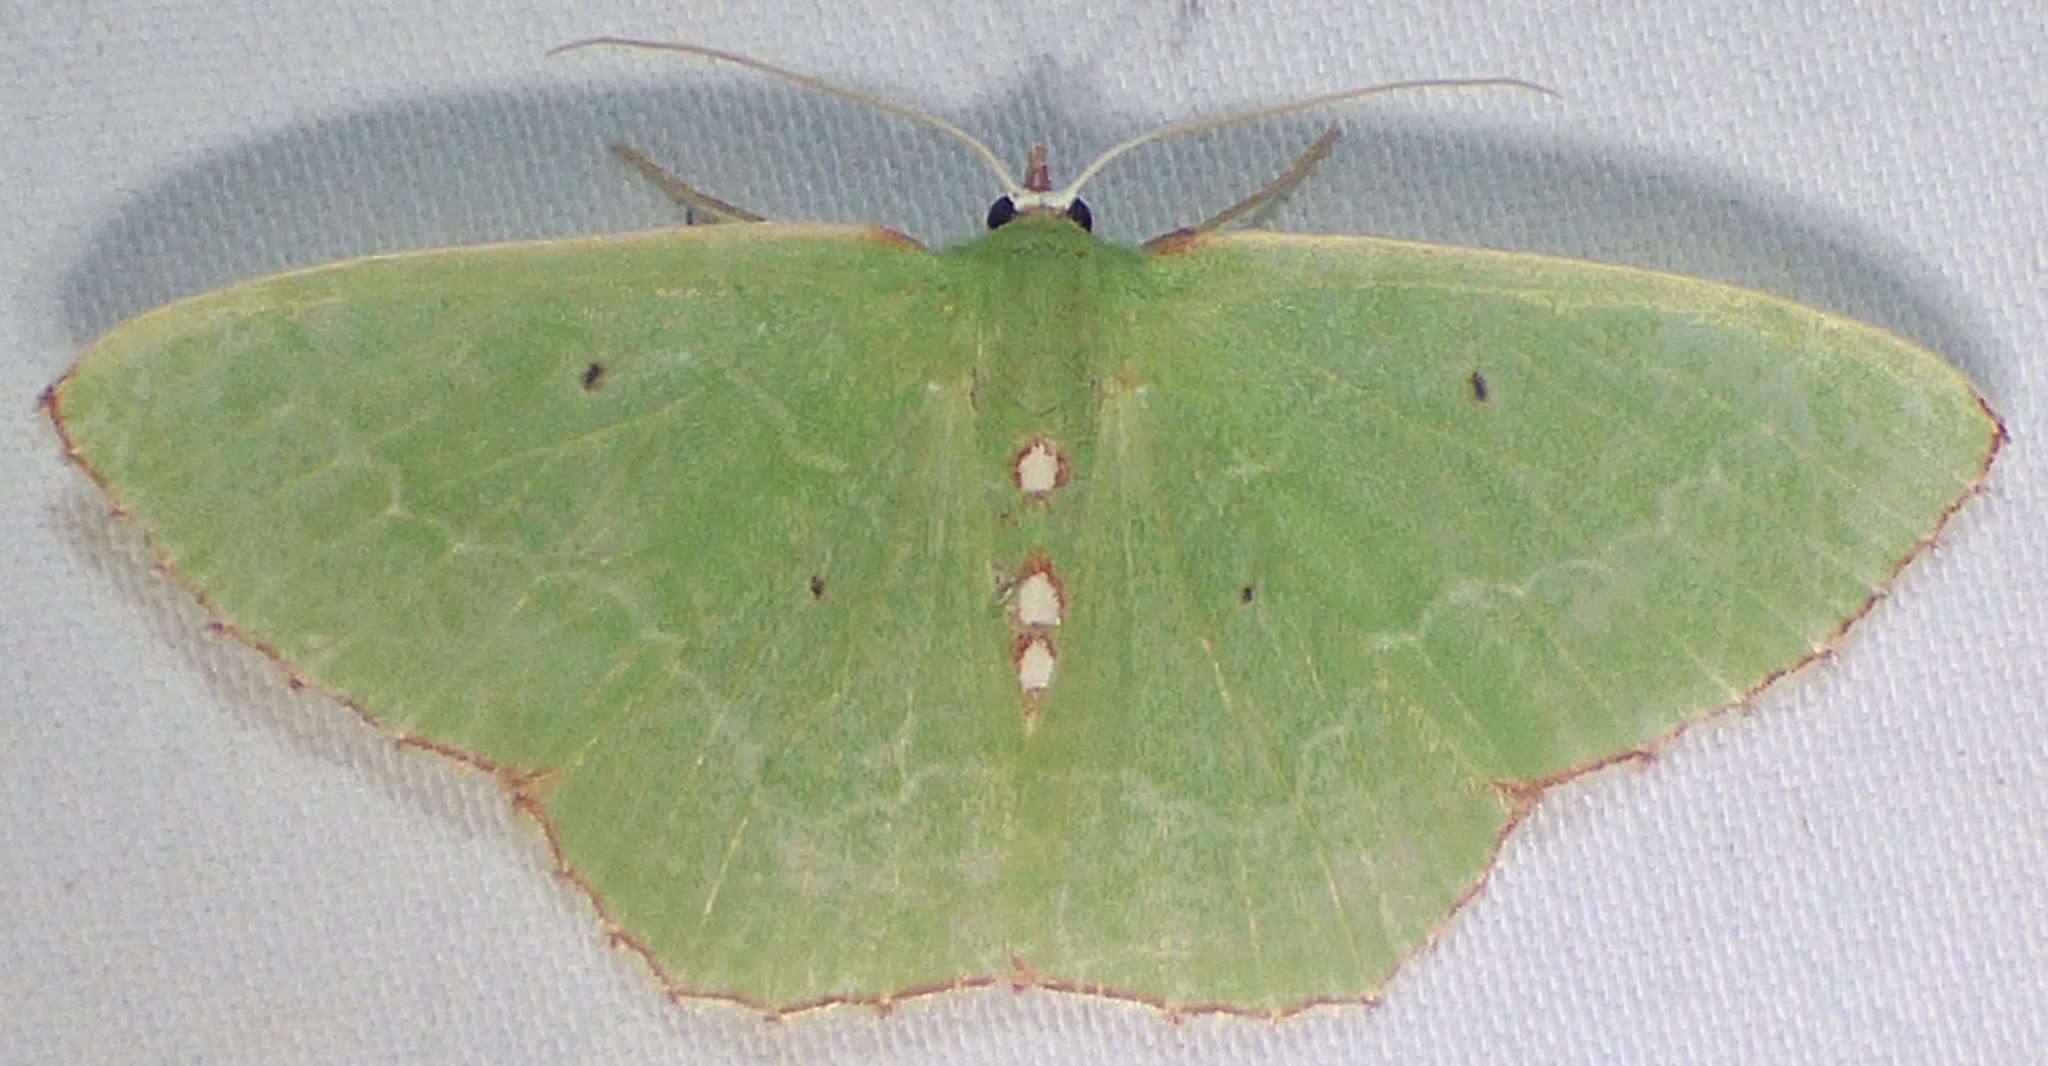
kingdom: Animalia
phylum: Arthropoda
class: Insecta
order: Lepidoptera
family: Geometridae
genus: Nemoria
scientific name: Nemoria lixaria
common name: Red-bordered emerald
